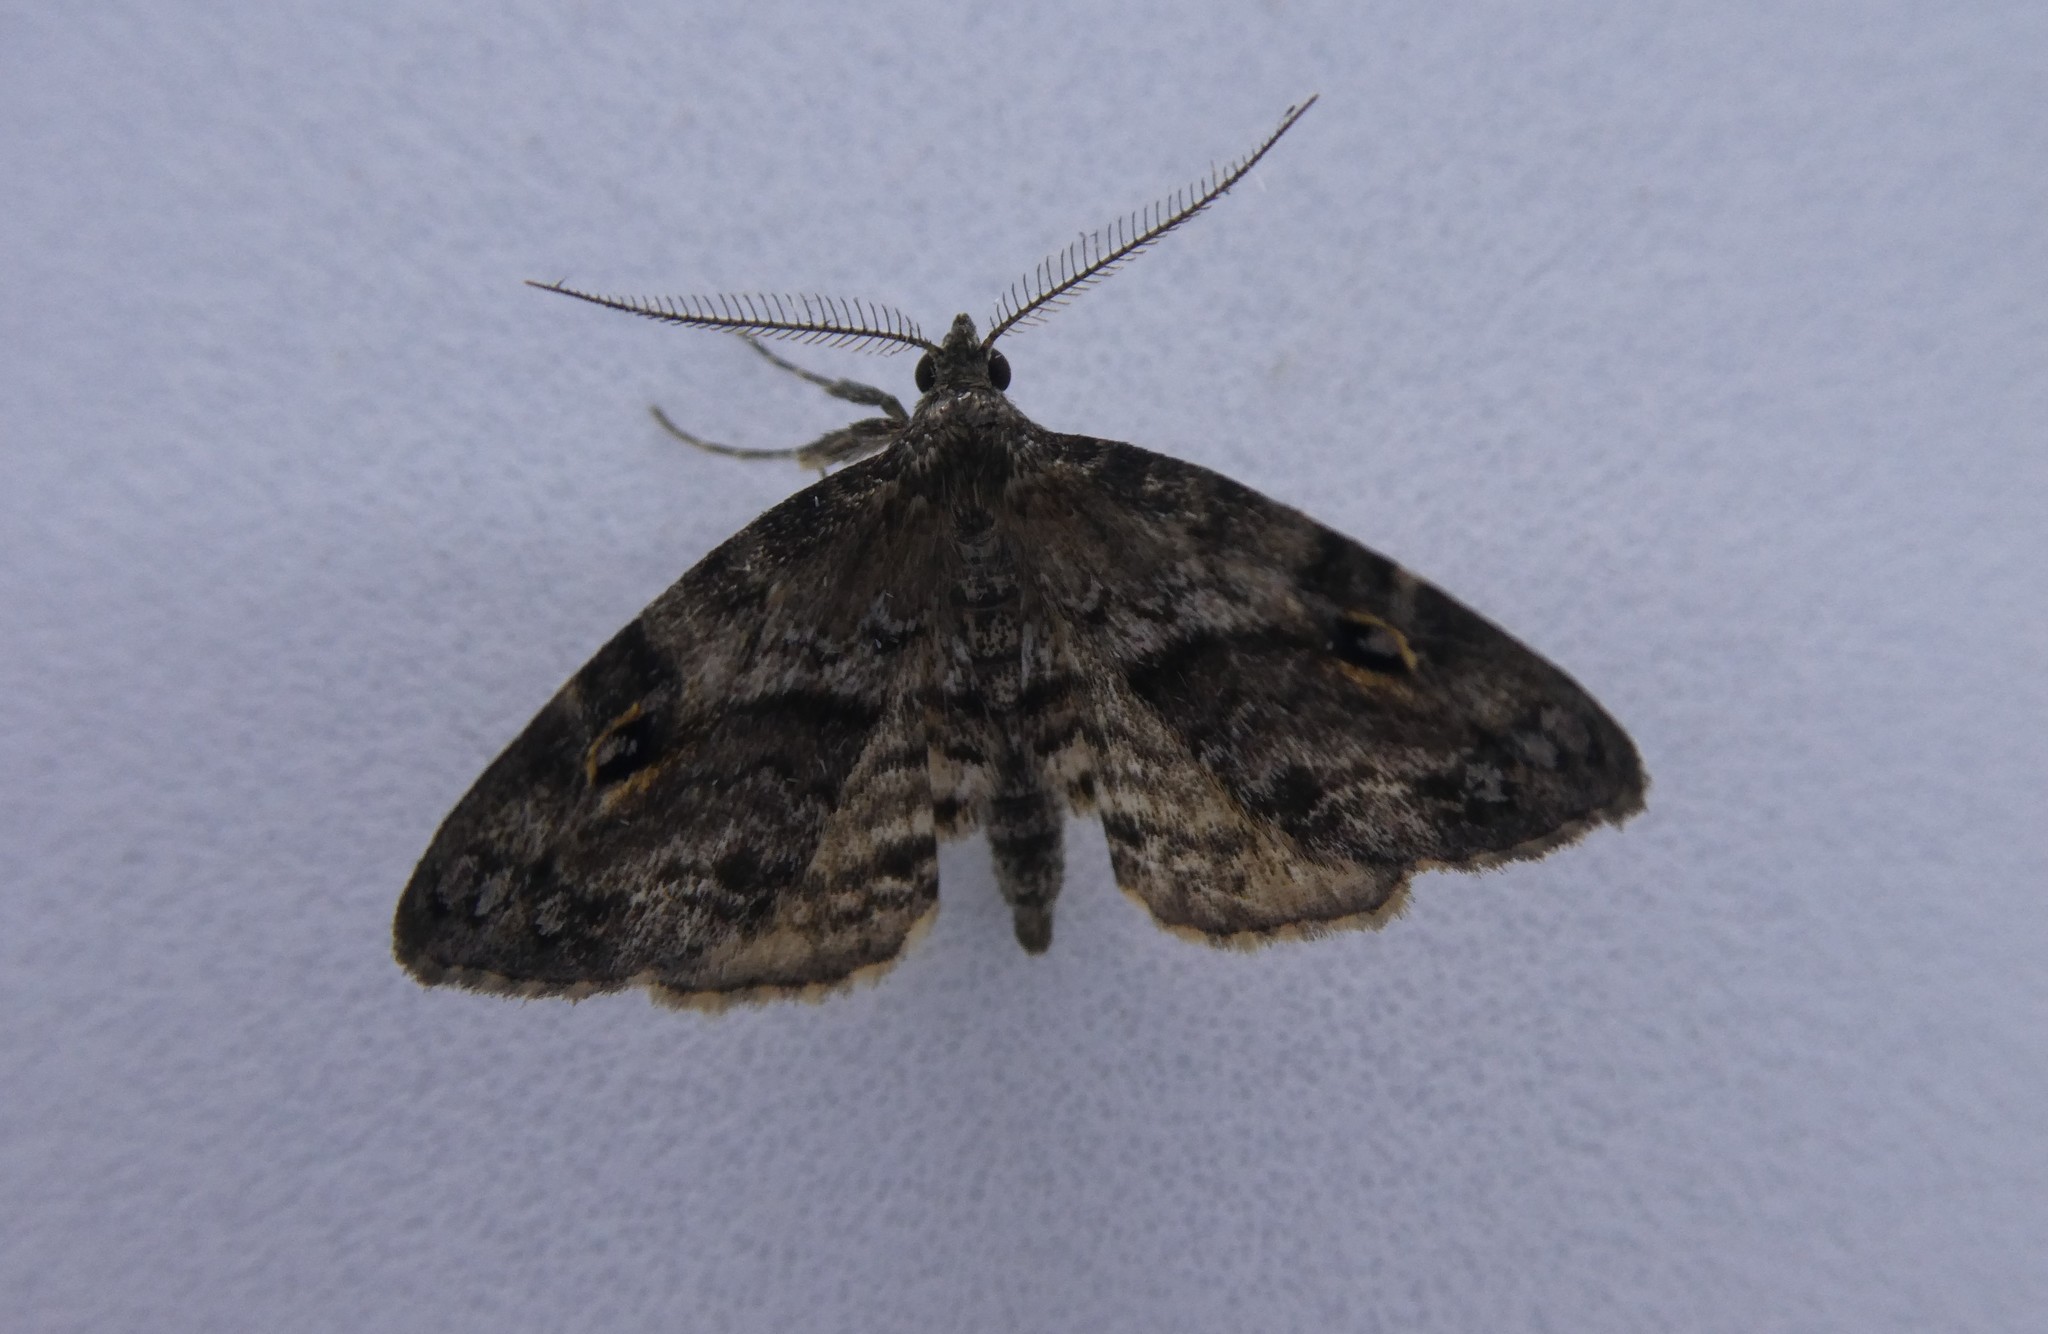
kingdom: Animalia
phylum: Arthropoda
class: Insecta
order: Lepidoptera
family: Erebidae
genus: Melanomma
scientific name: Melanomma auricinctaria
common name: Gold-lined melanomma moth
